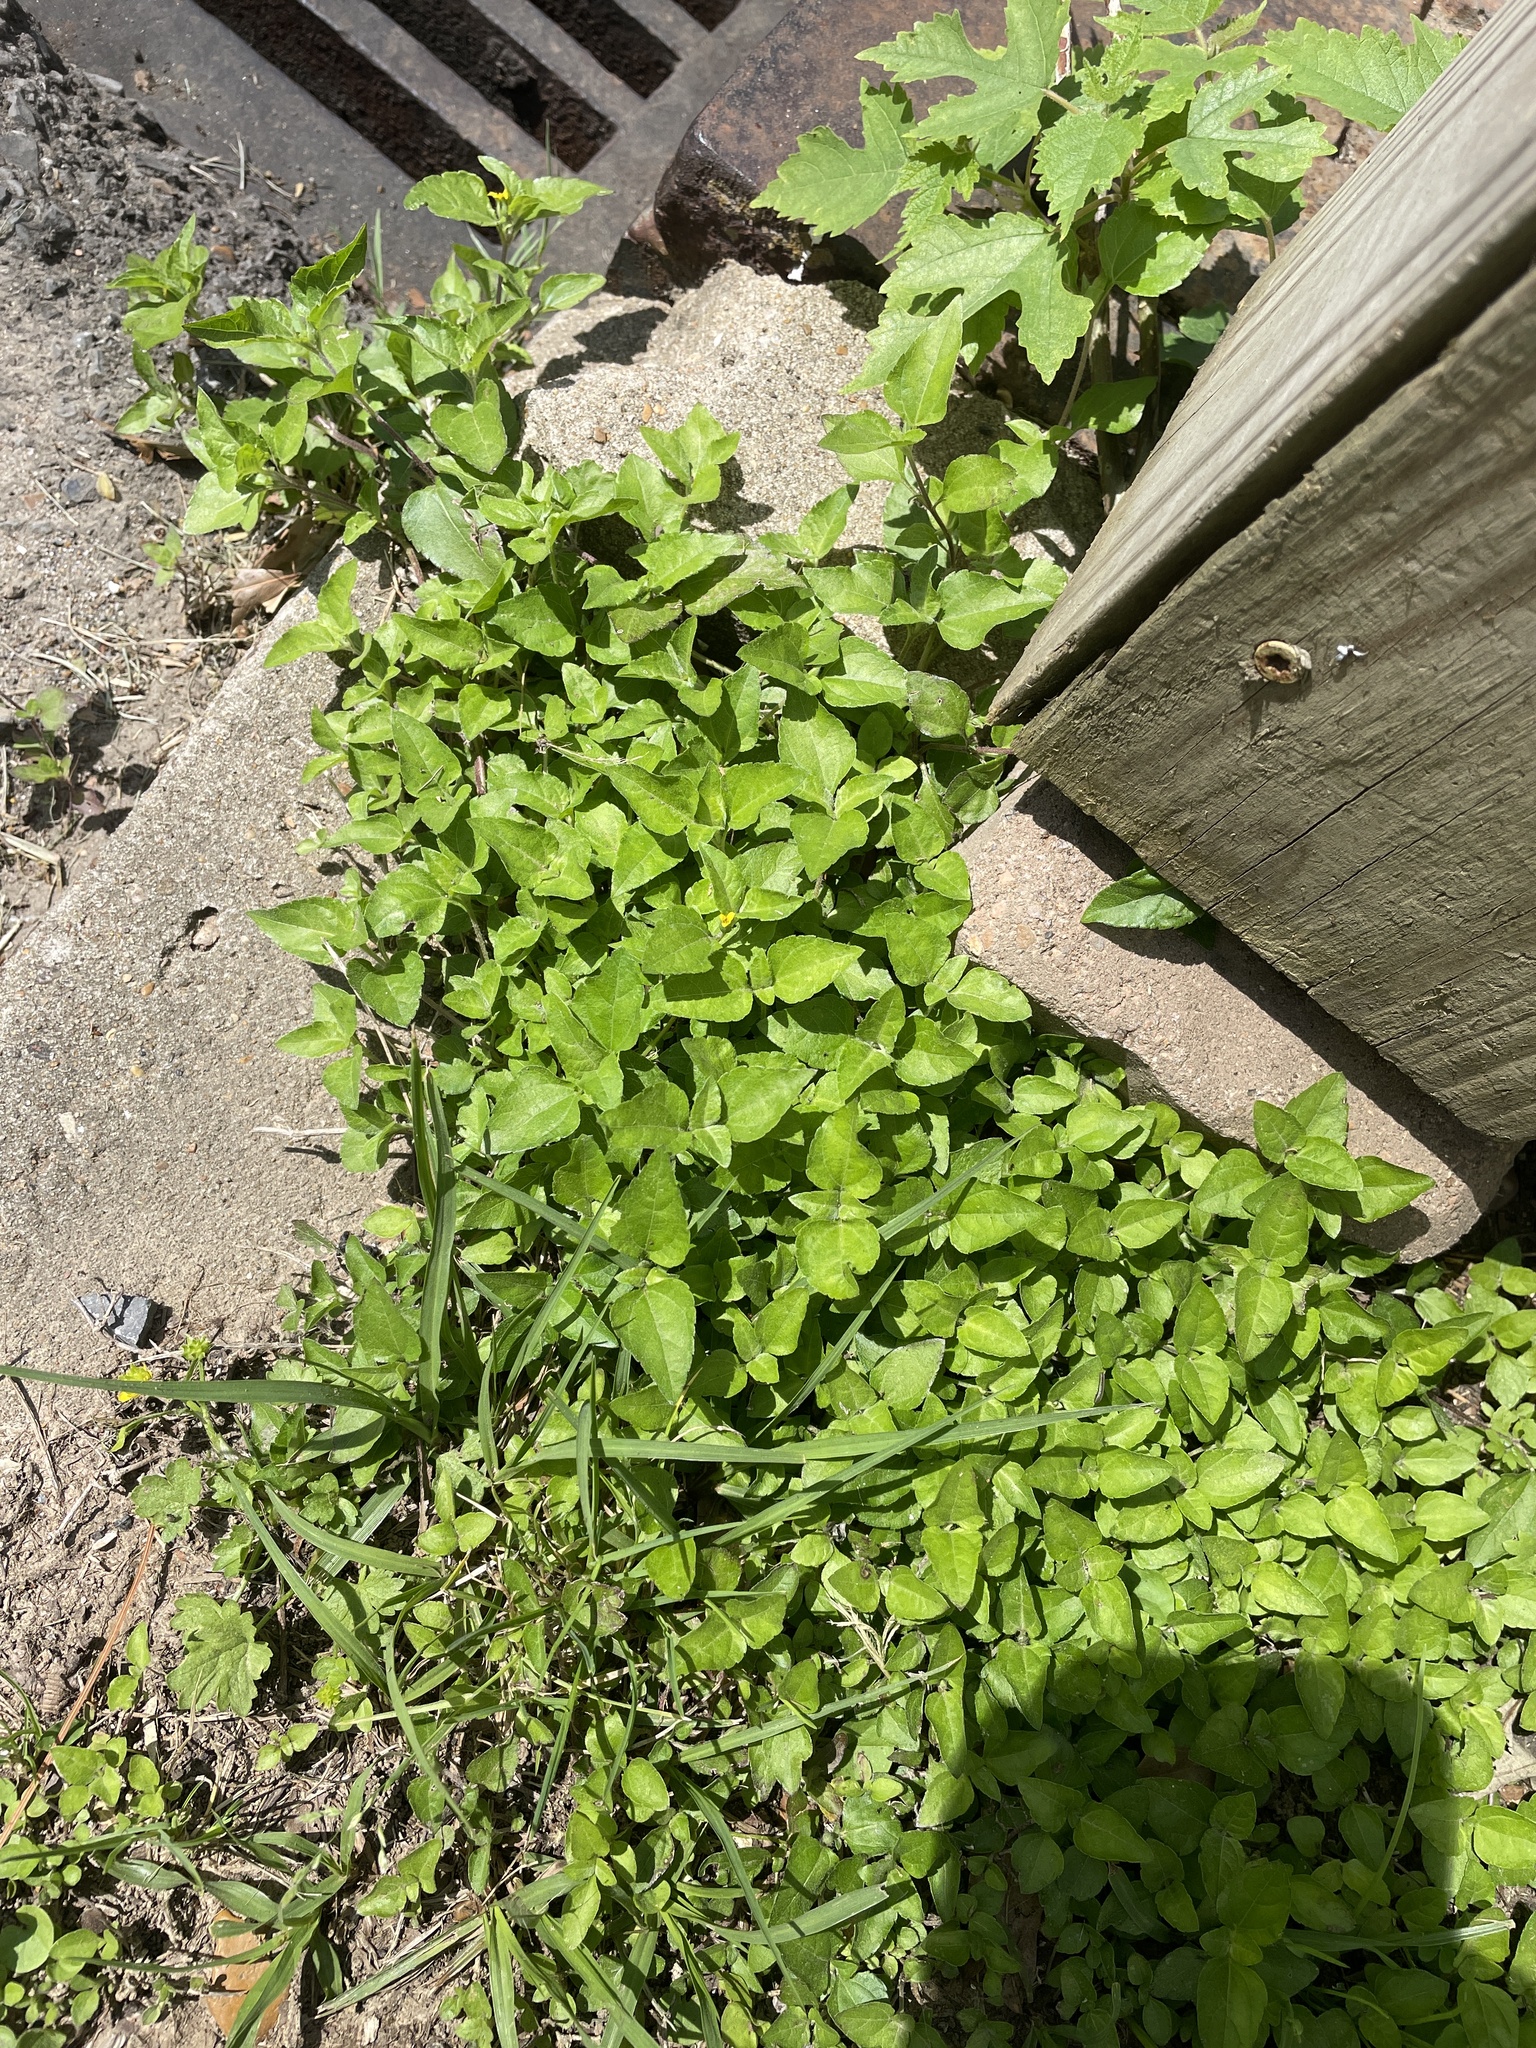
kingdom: Plantae
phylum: Tracheophyta
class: Magnoliopsida
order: Asterales
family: Asteraceae
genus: Calyptocarpus
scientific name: Calyptocarpus vialis
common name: Straggler daisy
